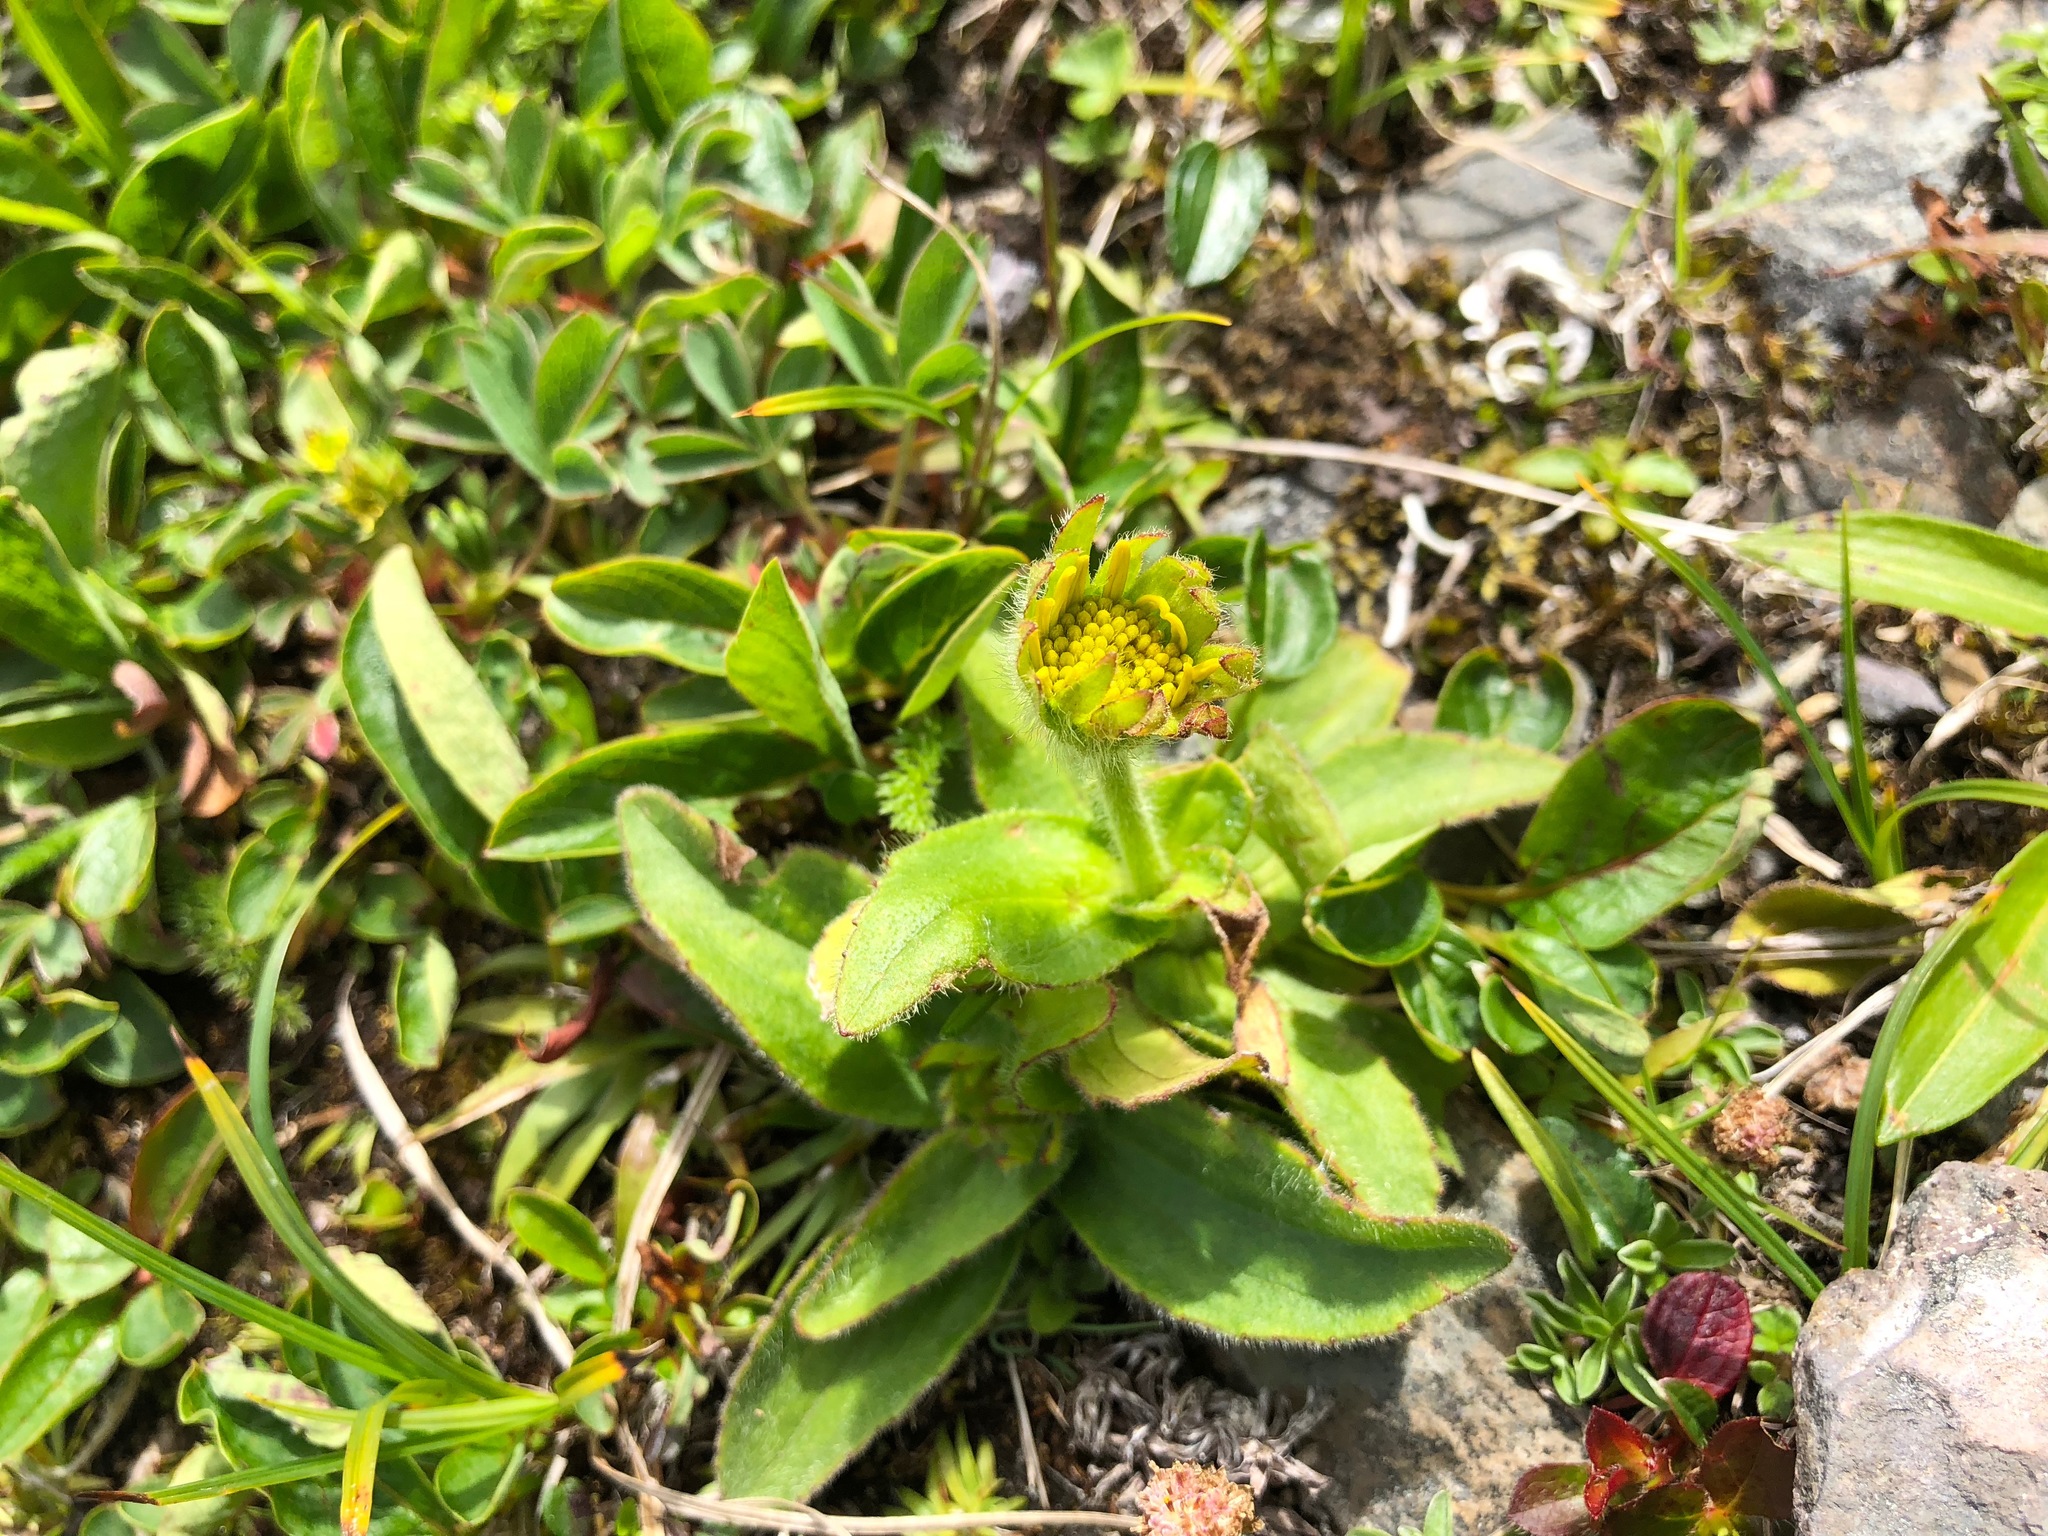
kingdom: Plantae
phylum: Tracheophyta
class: Magnoliopsida
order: Asterales
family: Asteraceae
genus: Arnica
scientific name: Arnica unalaschcensis
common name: Alaska arnica
